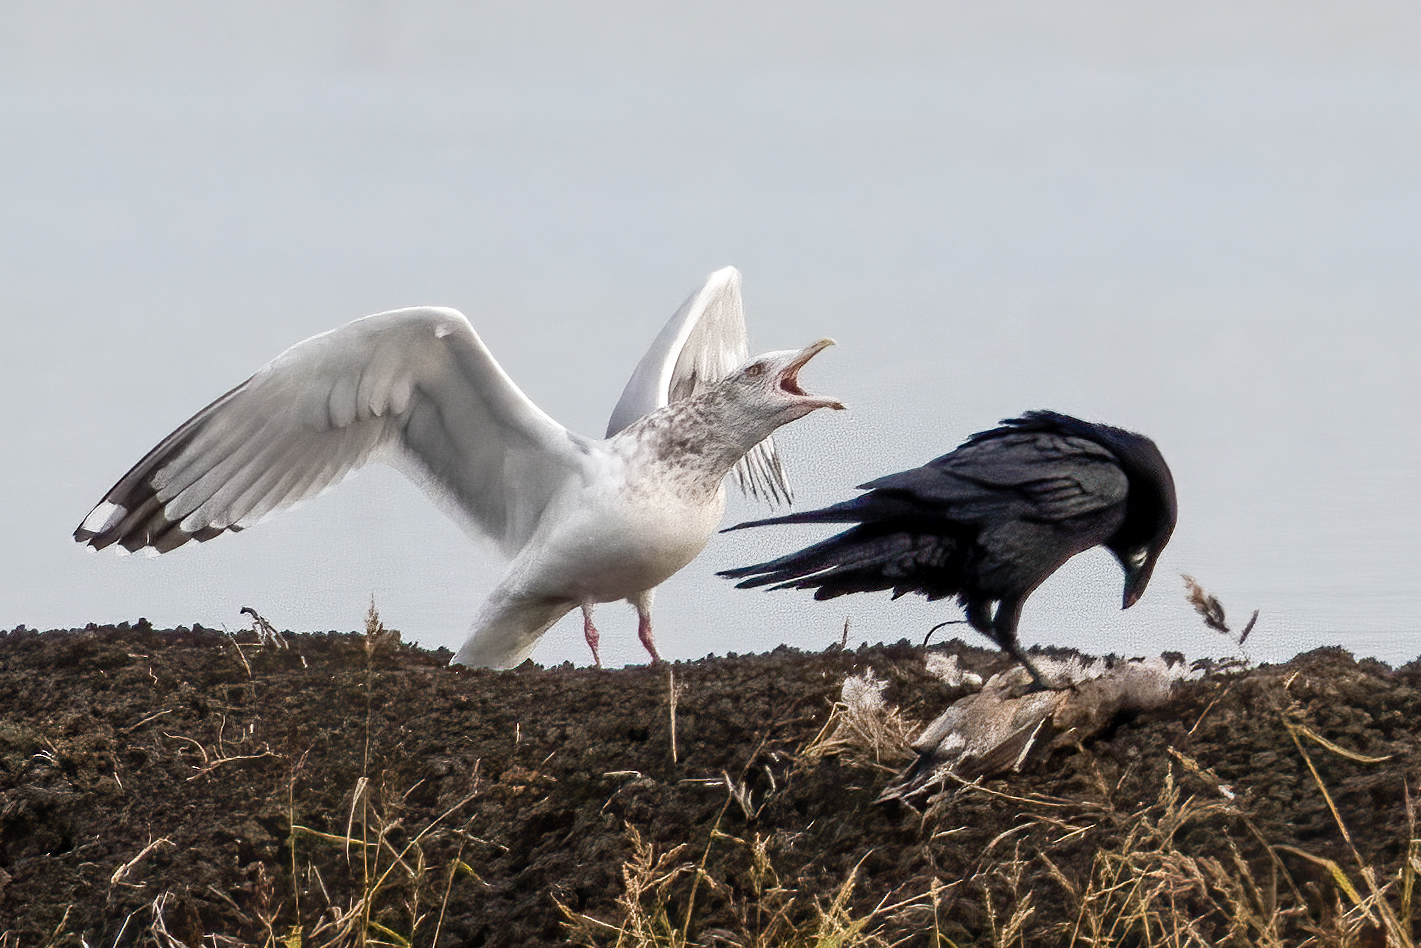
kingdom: Animalia
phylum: Chordata
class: Aves
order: Charadriiformes
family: Laridae
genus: Larus
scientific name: Larus argentatus
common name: Herring gull
